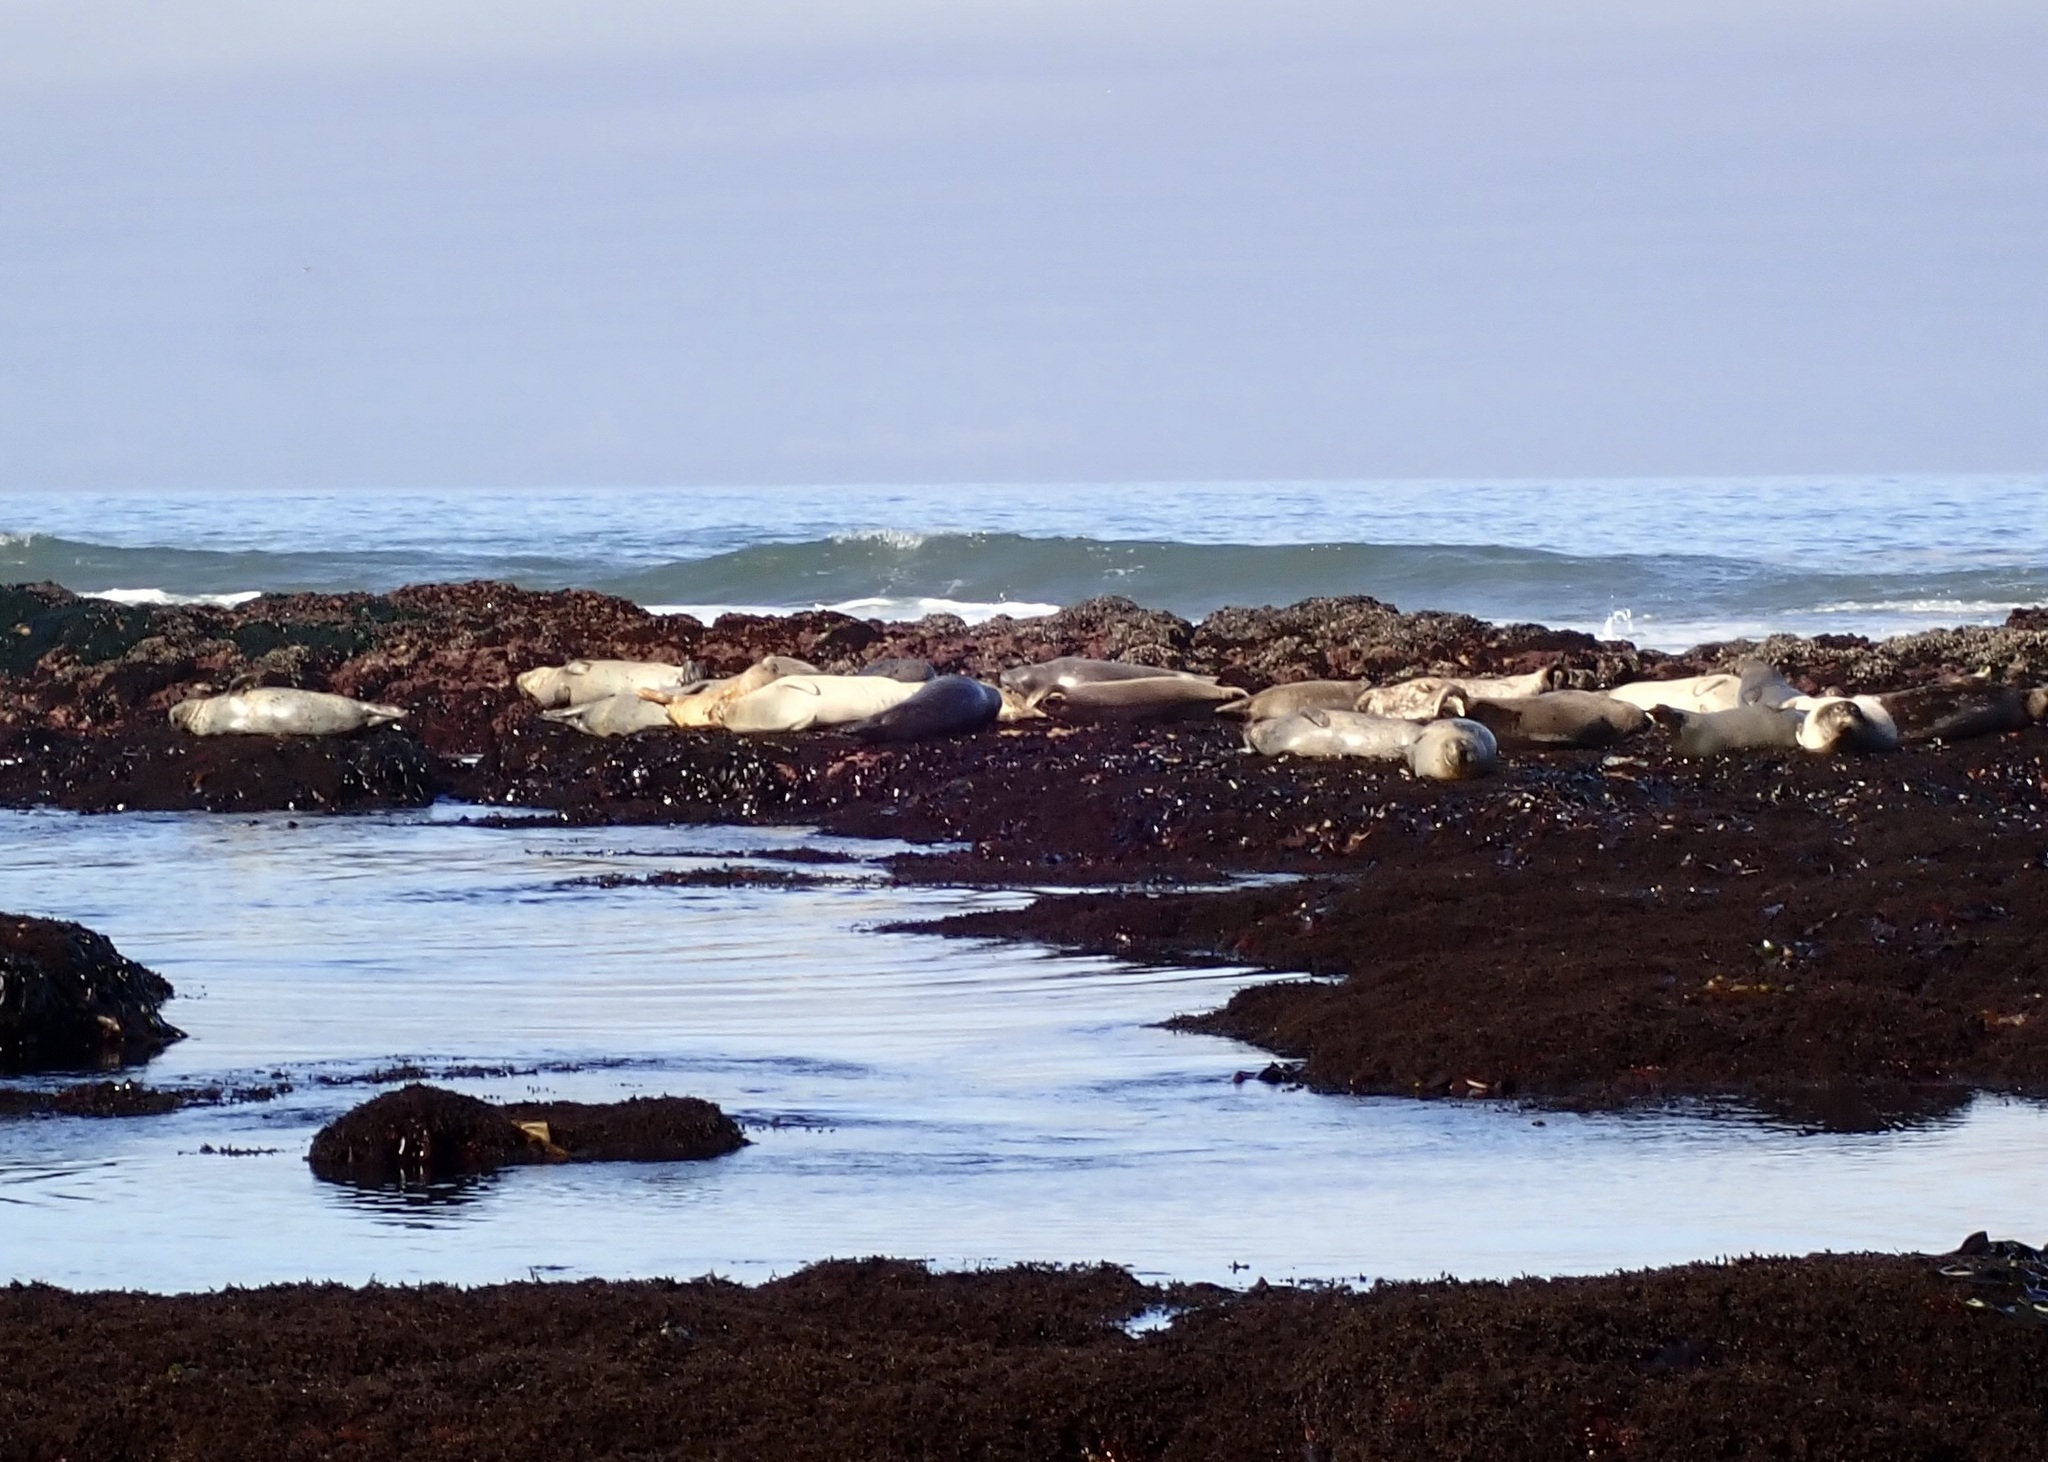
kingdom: Animalia
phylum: Chordata
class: Mammalia
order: Carnivora
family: Phocidae
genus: Phoca
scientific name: Phoca vitulina
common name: Harbor seal
